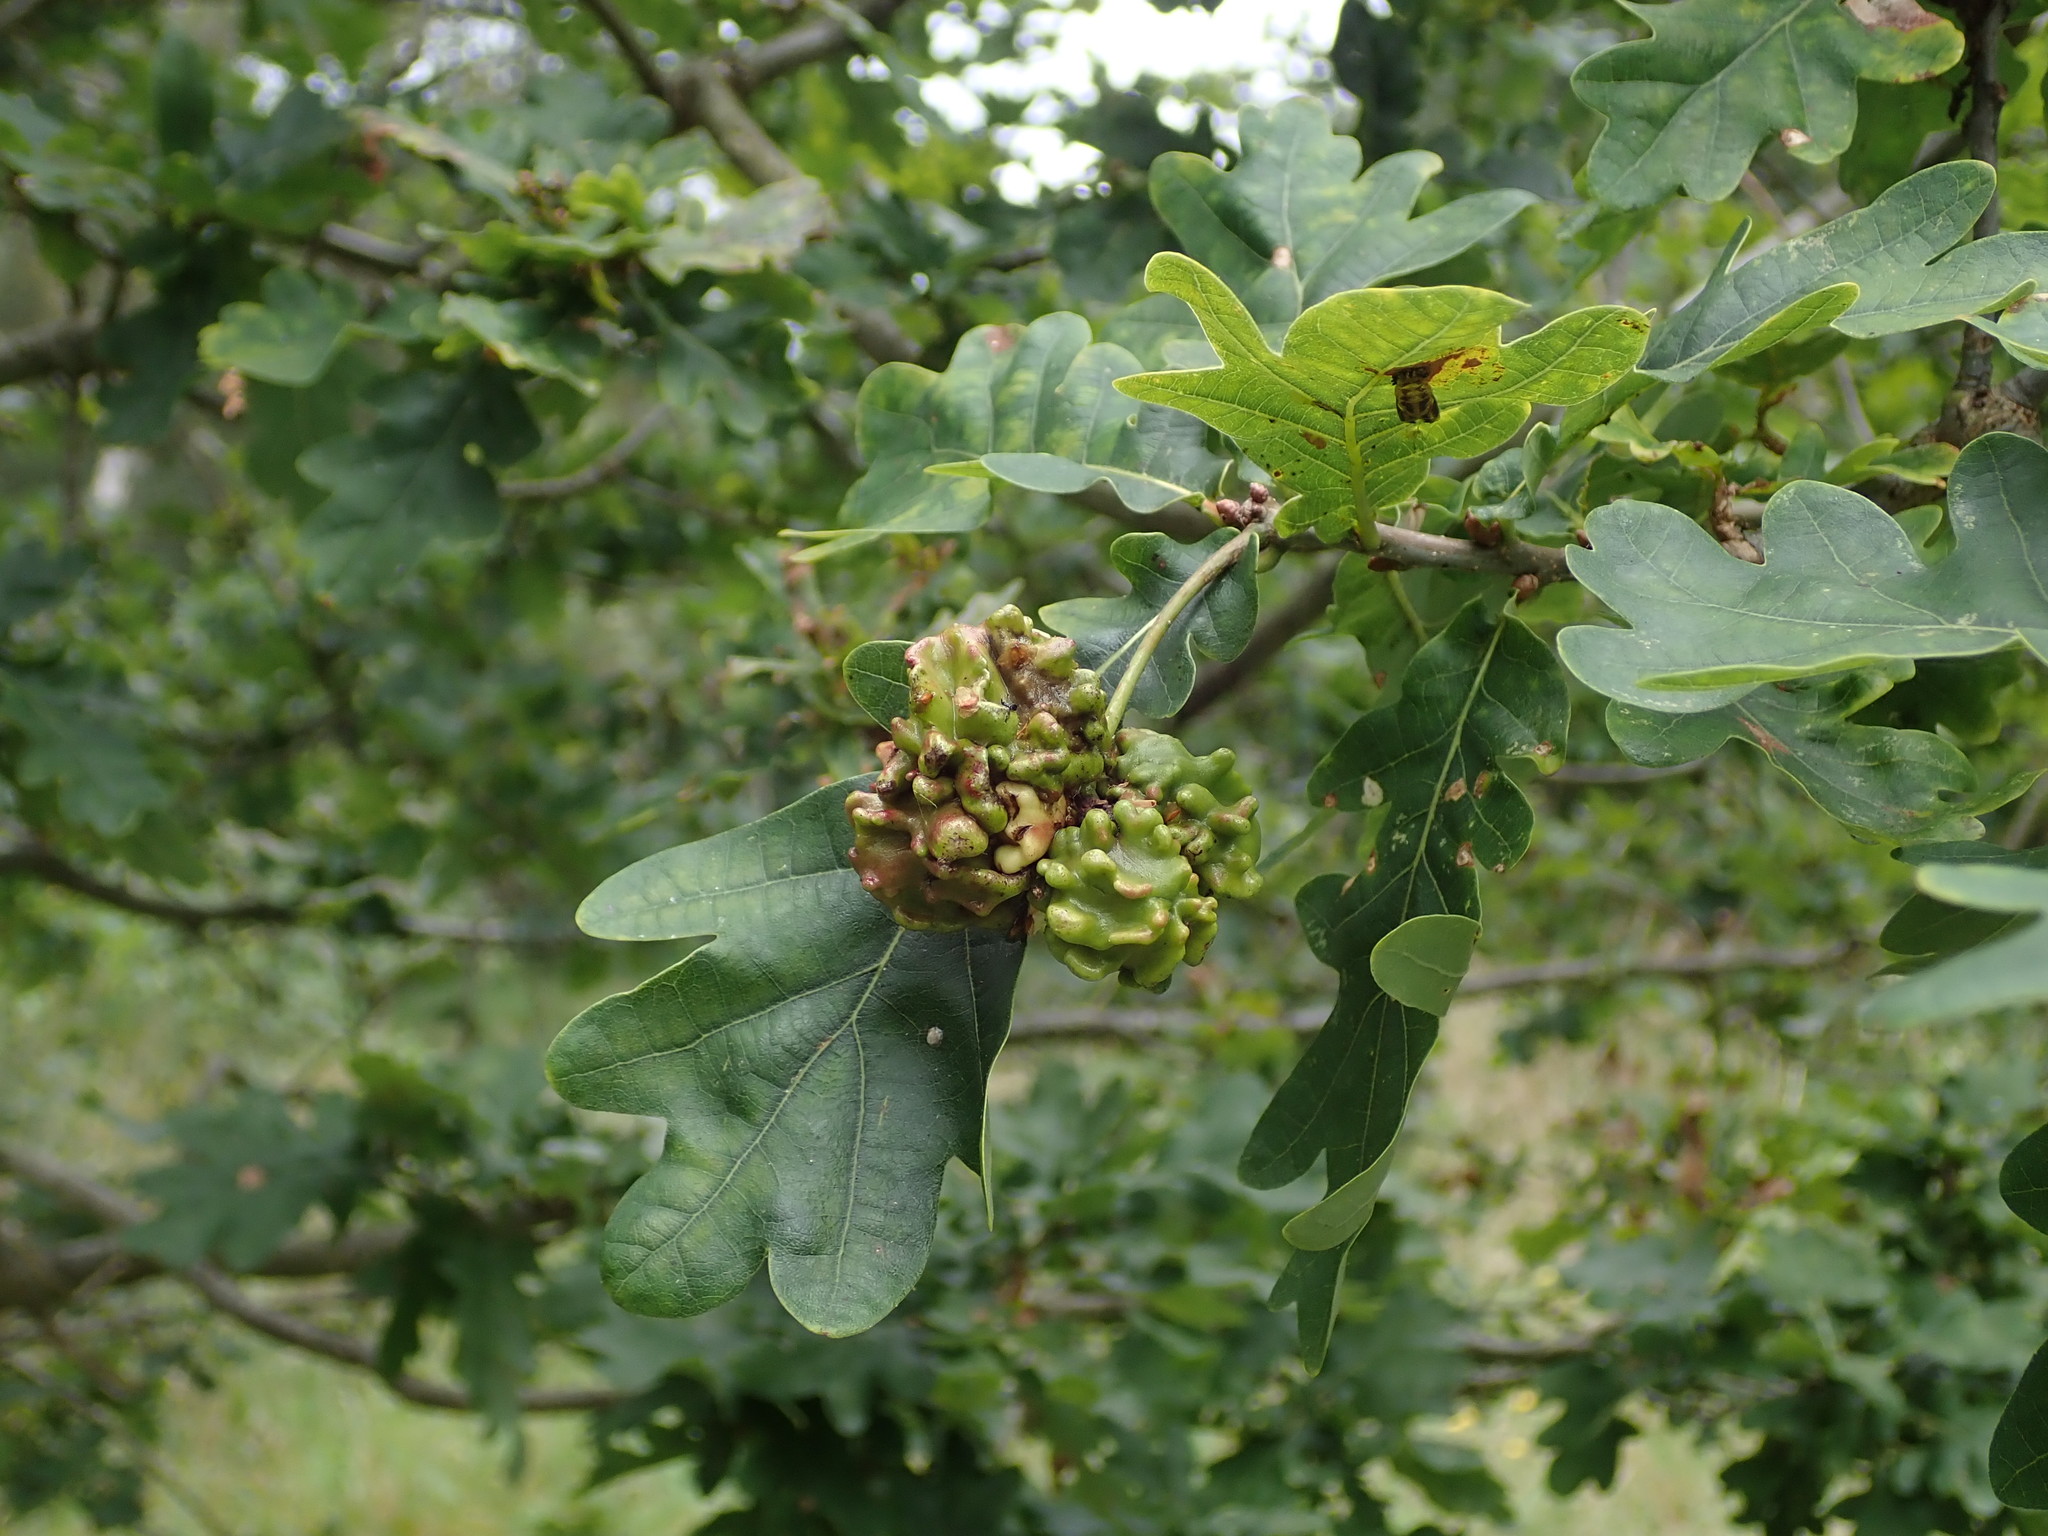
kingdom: Animalia
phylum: Arthropoda
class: Insecta
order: Hymenoptera
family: Cynipidae
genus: Andricus
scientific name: Andricus quercuscalicis
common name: Knopper gall
